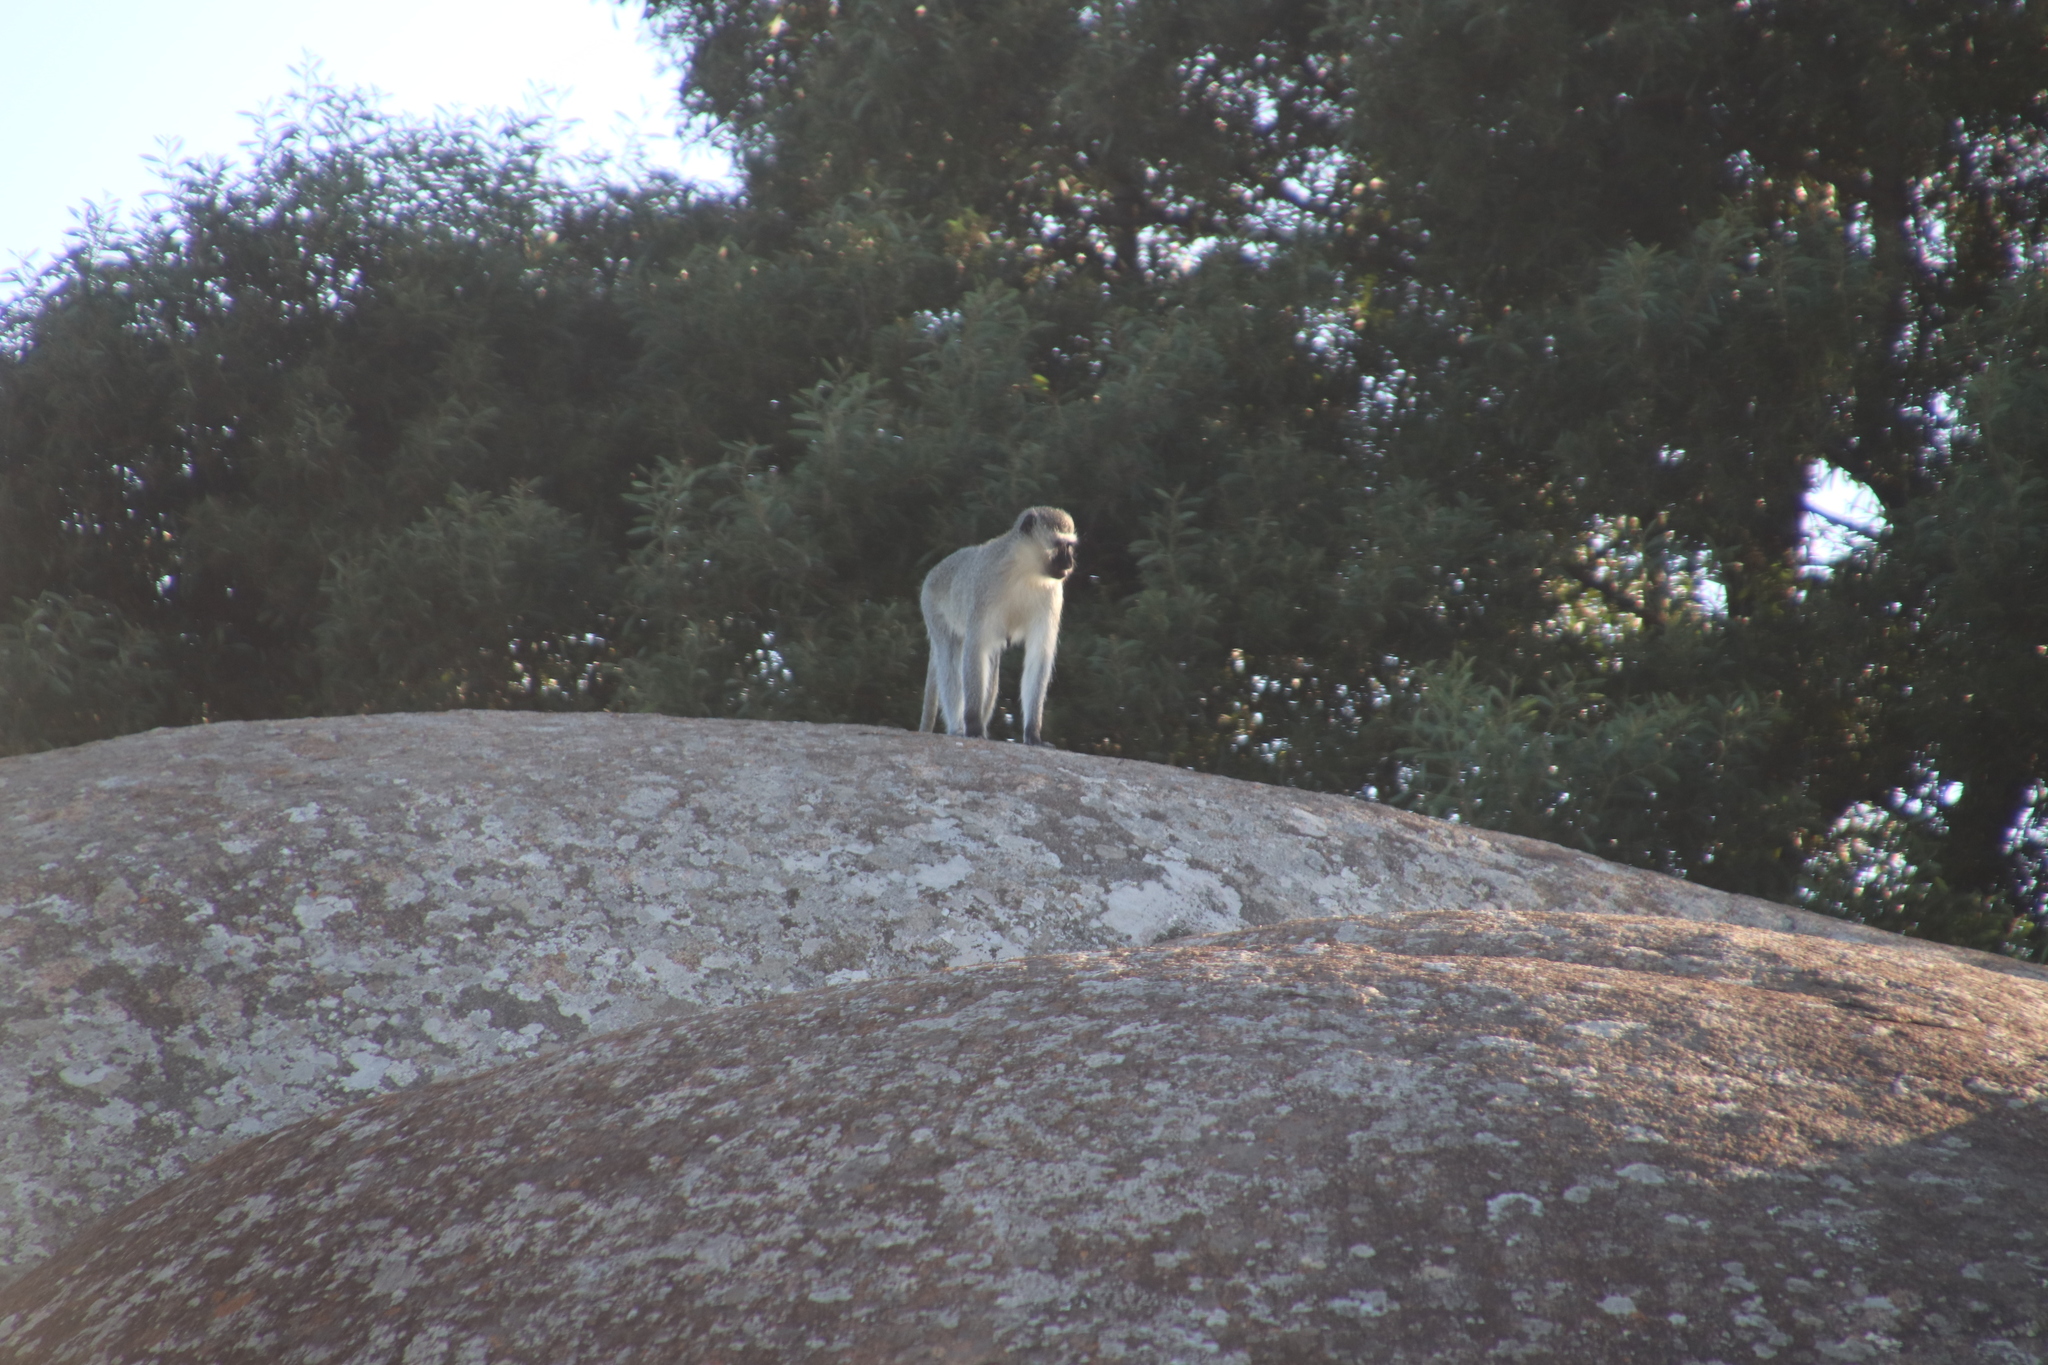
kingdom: Animalia
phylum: Chordata
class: Mammalia
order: Primates
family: Cercopithecidae
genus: Chlorocebus
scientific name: Chlorocebus pygerythrus
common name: Vervet monkey
